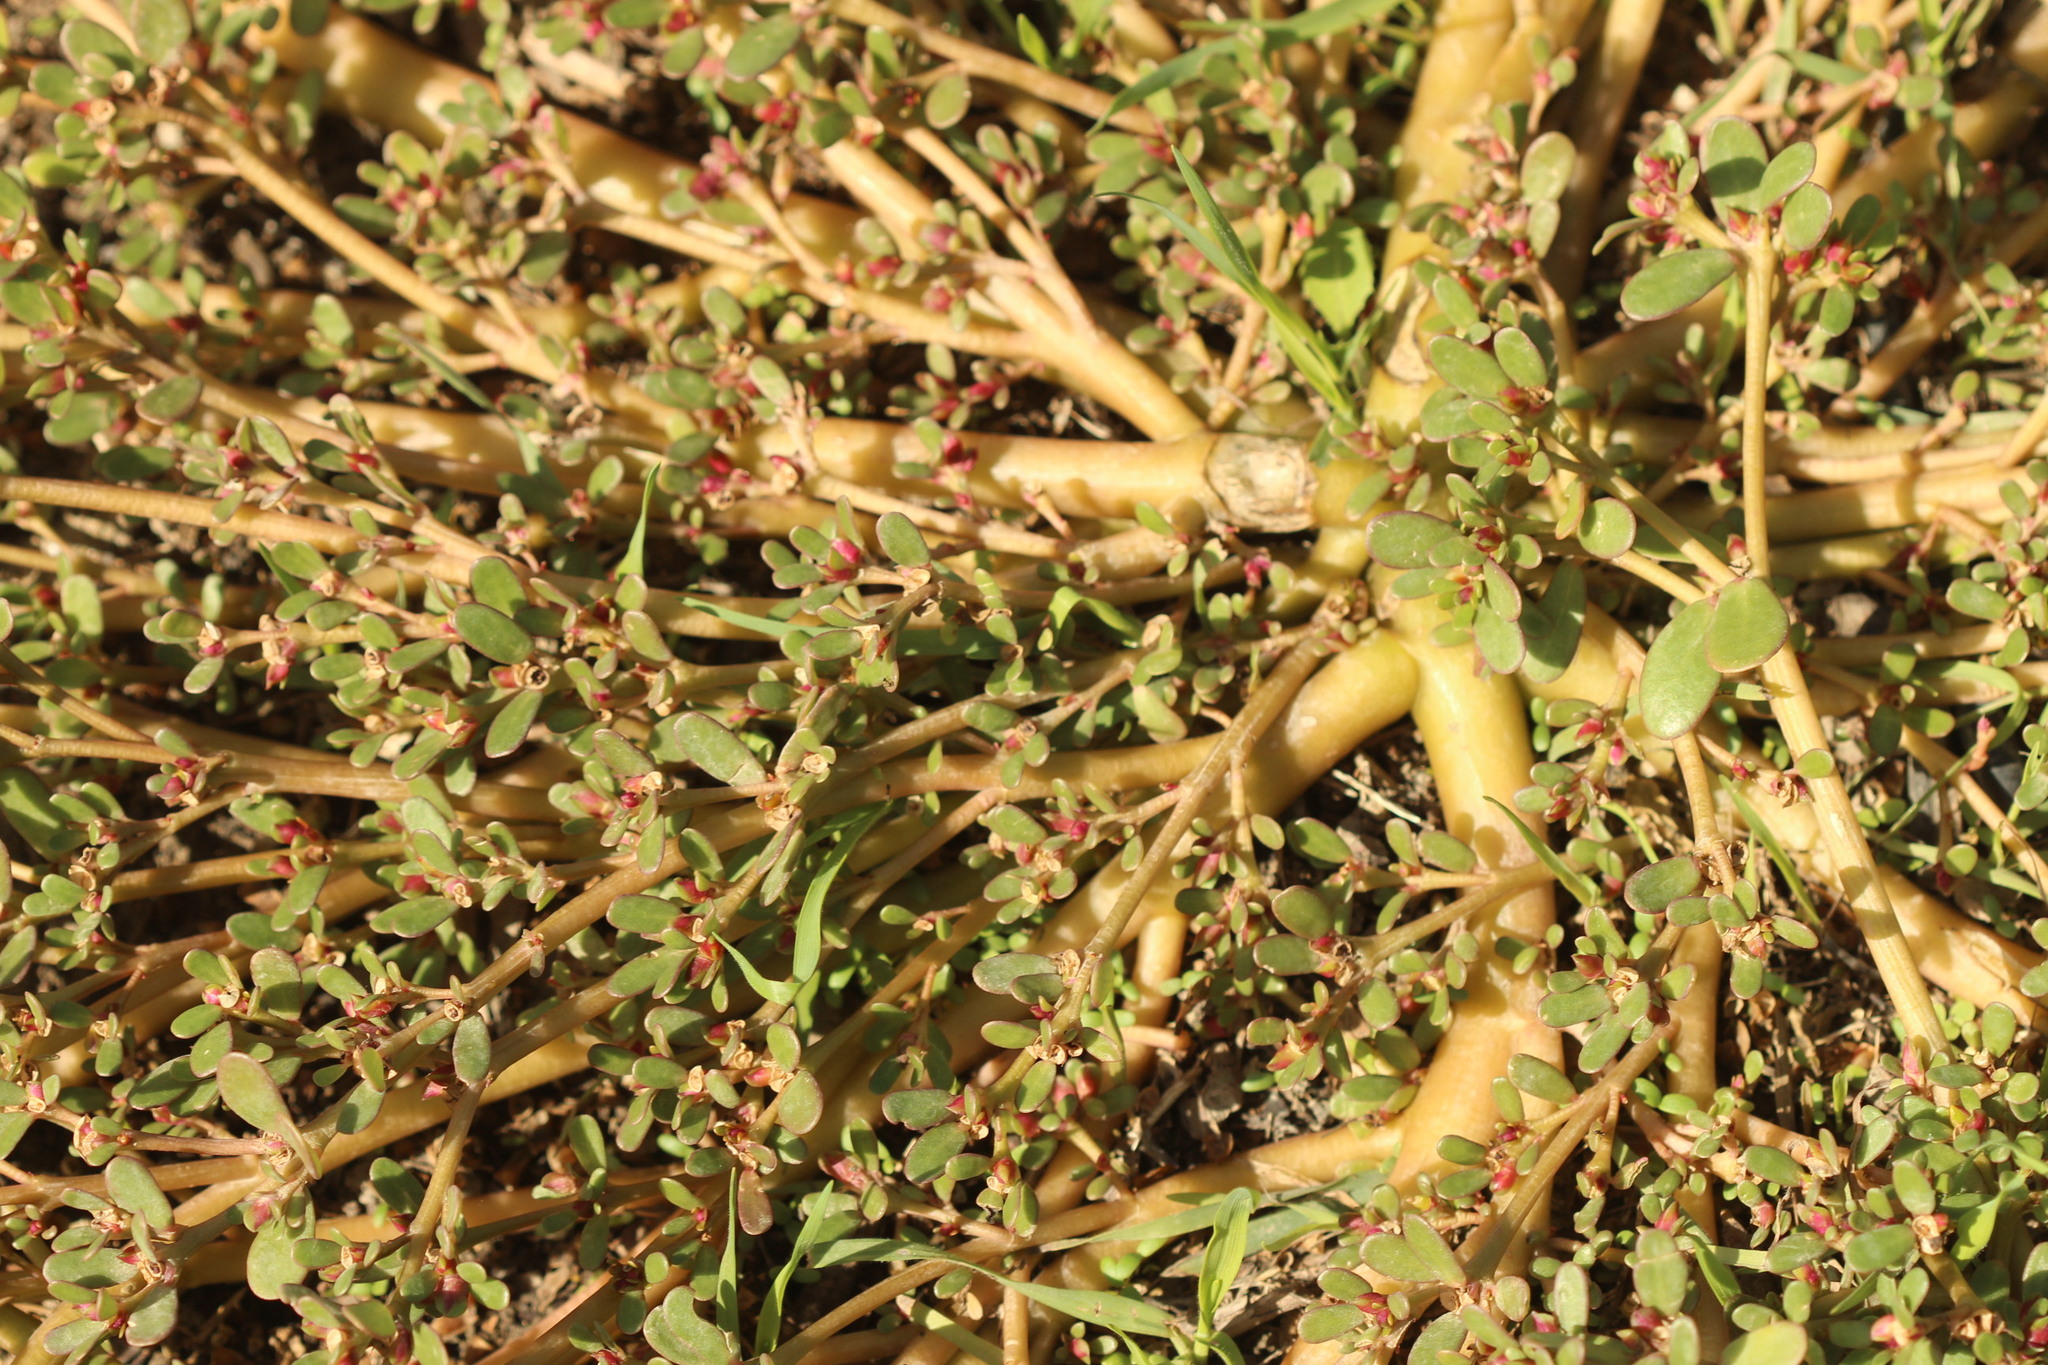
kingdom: Plantae
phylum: Tracheophyta
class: Magnoliopsida
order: Caryophyllales
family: Portulacaceae
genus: Portulaca
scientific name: Portulaca oleracea
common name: Common purslane
